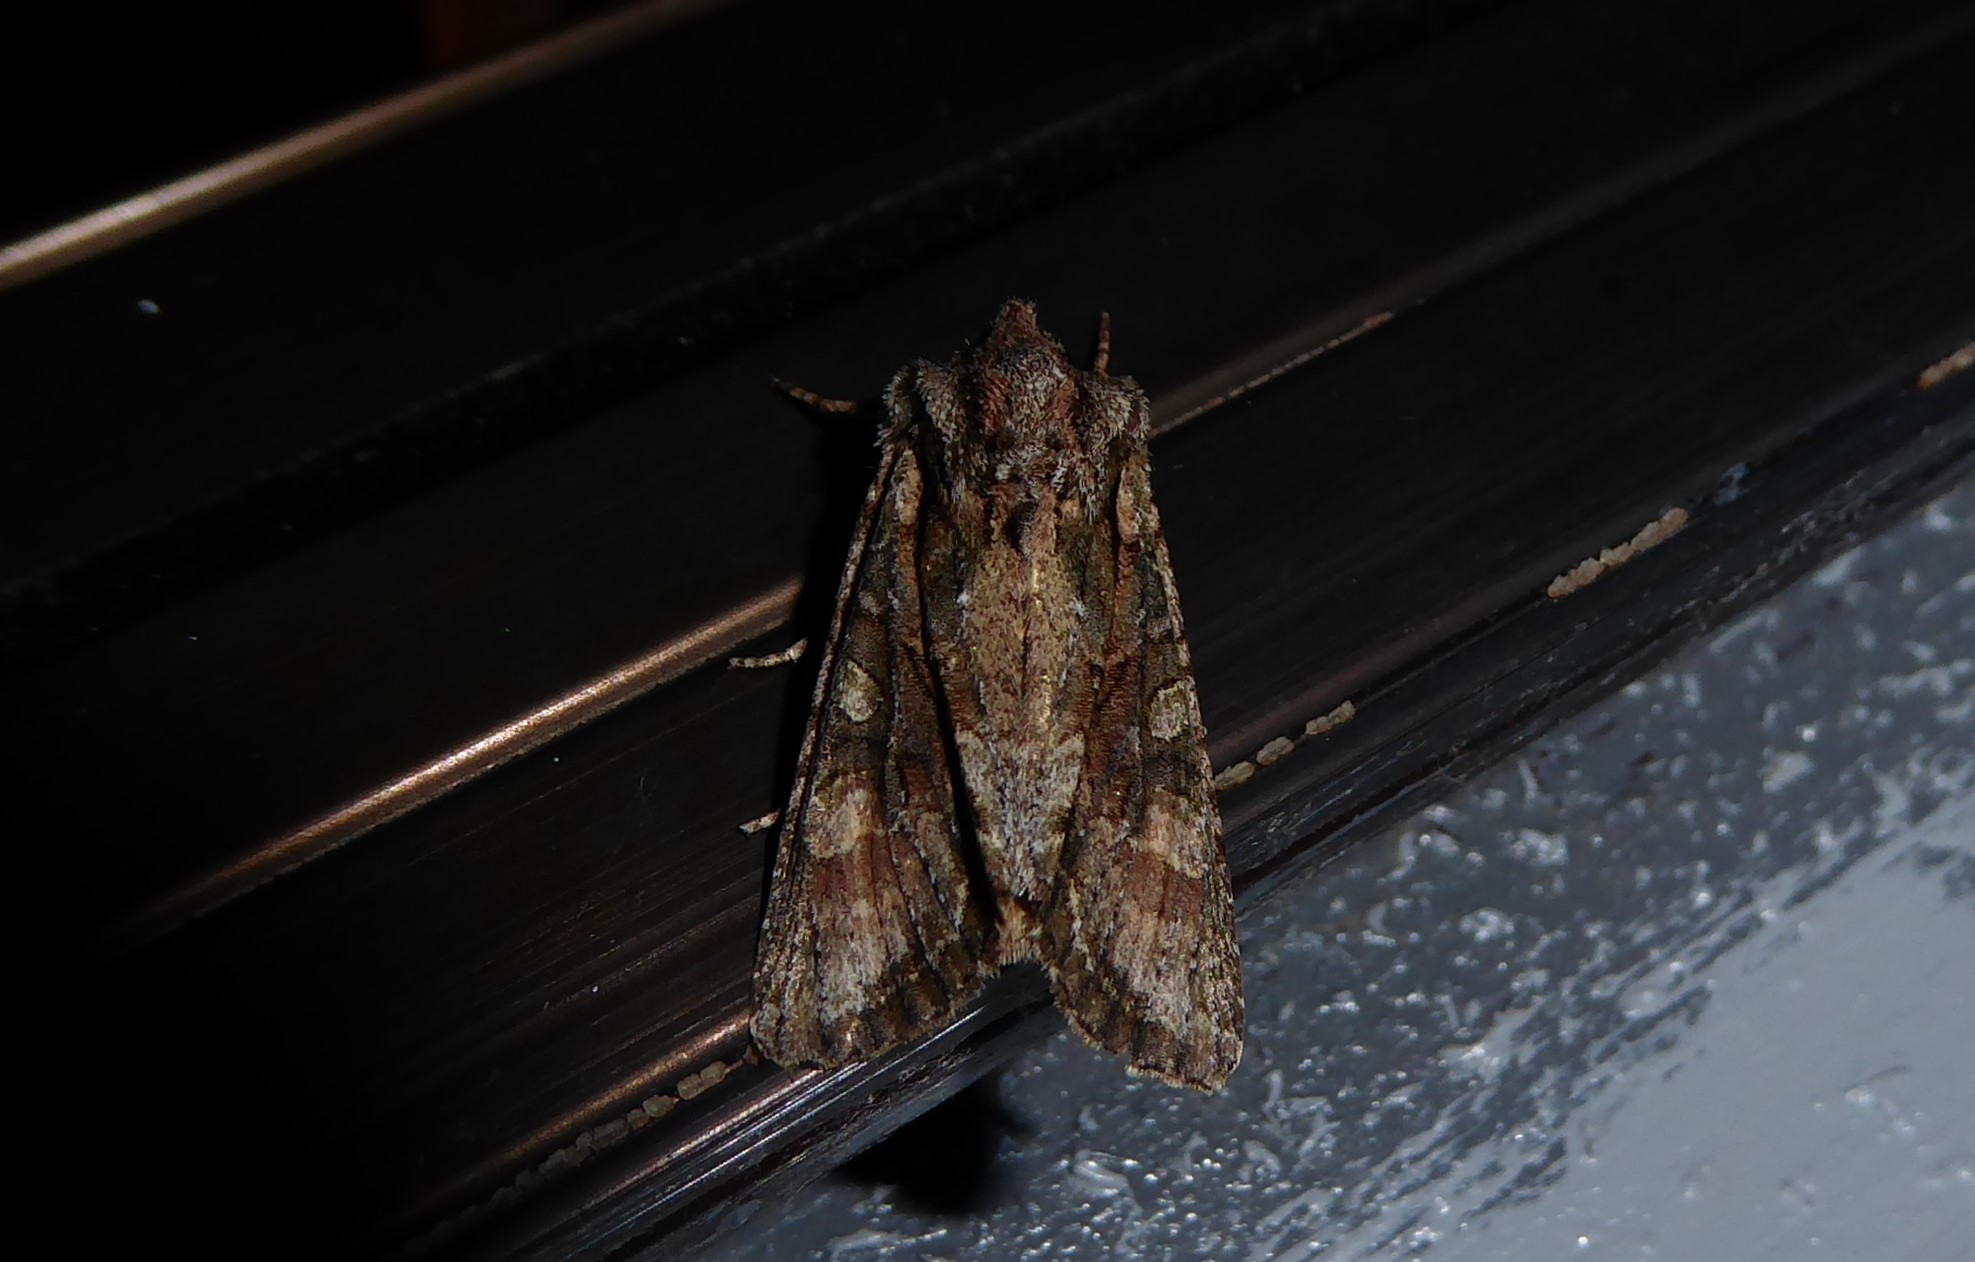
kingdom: Animalia
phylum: Arthropoda
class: Insecta
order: Lepidoptera
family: Noctuidae
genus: Ichneutica
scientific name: Ichneutica mutans
